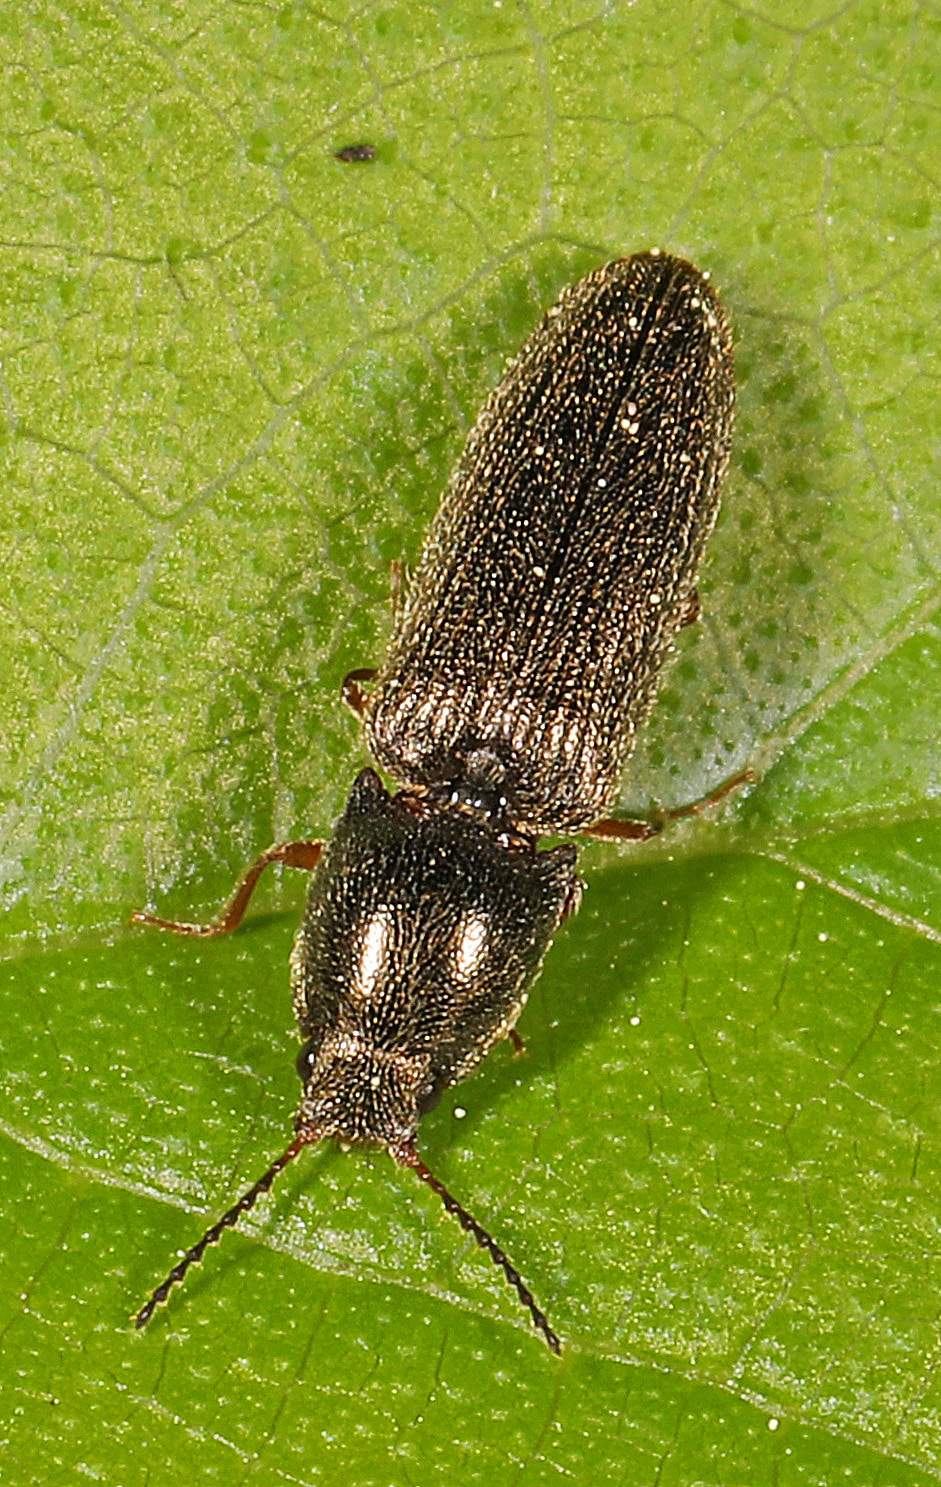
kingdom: Animalia
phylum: Arthropoda
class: Insecta
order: Coleoptera
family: Elateridae
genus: Limonius
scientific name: Limonius quercinus
